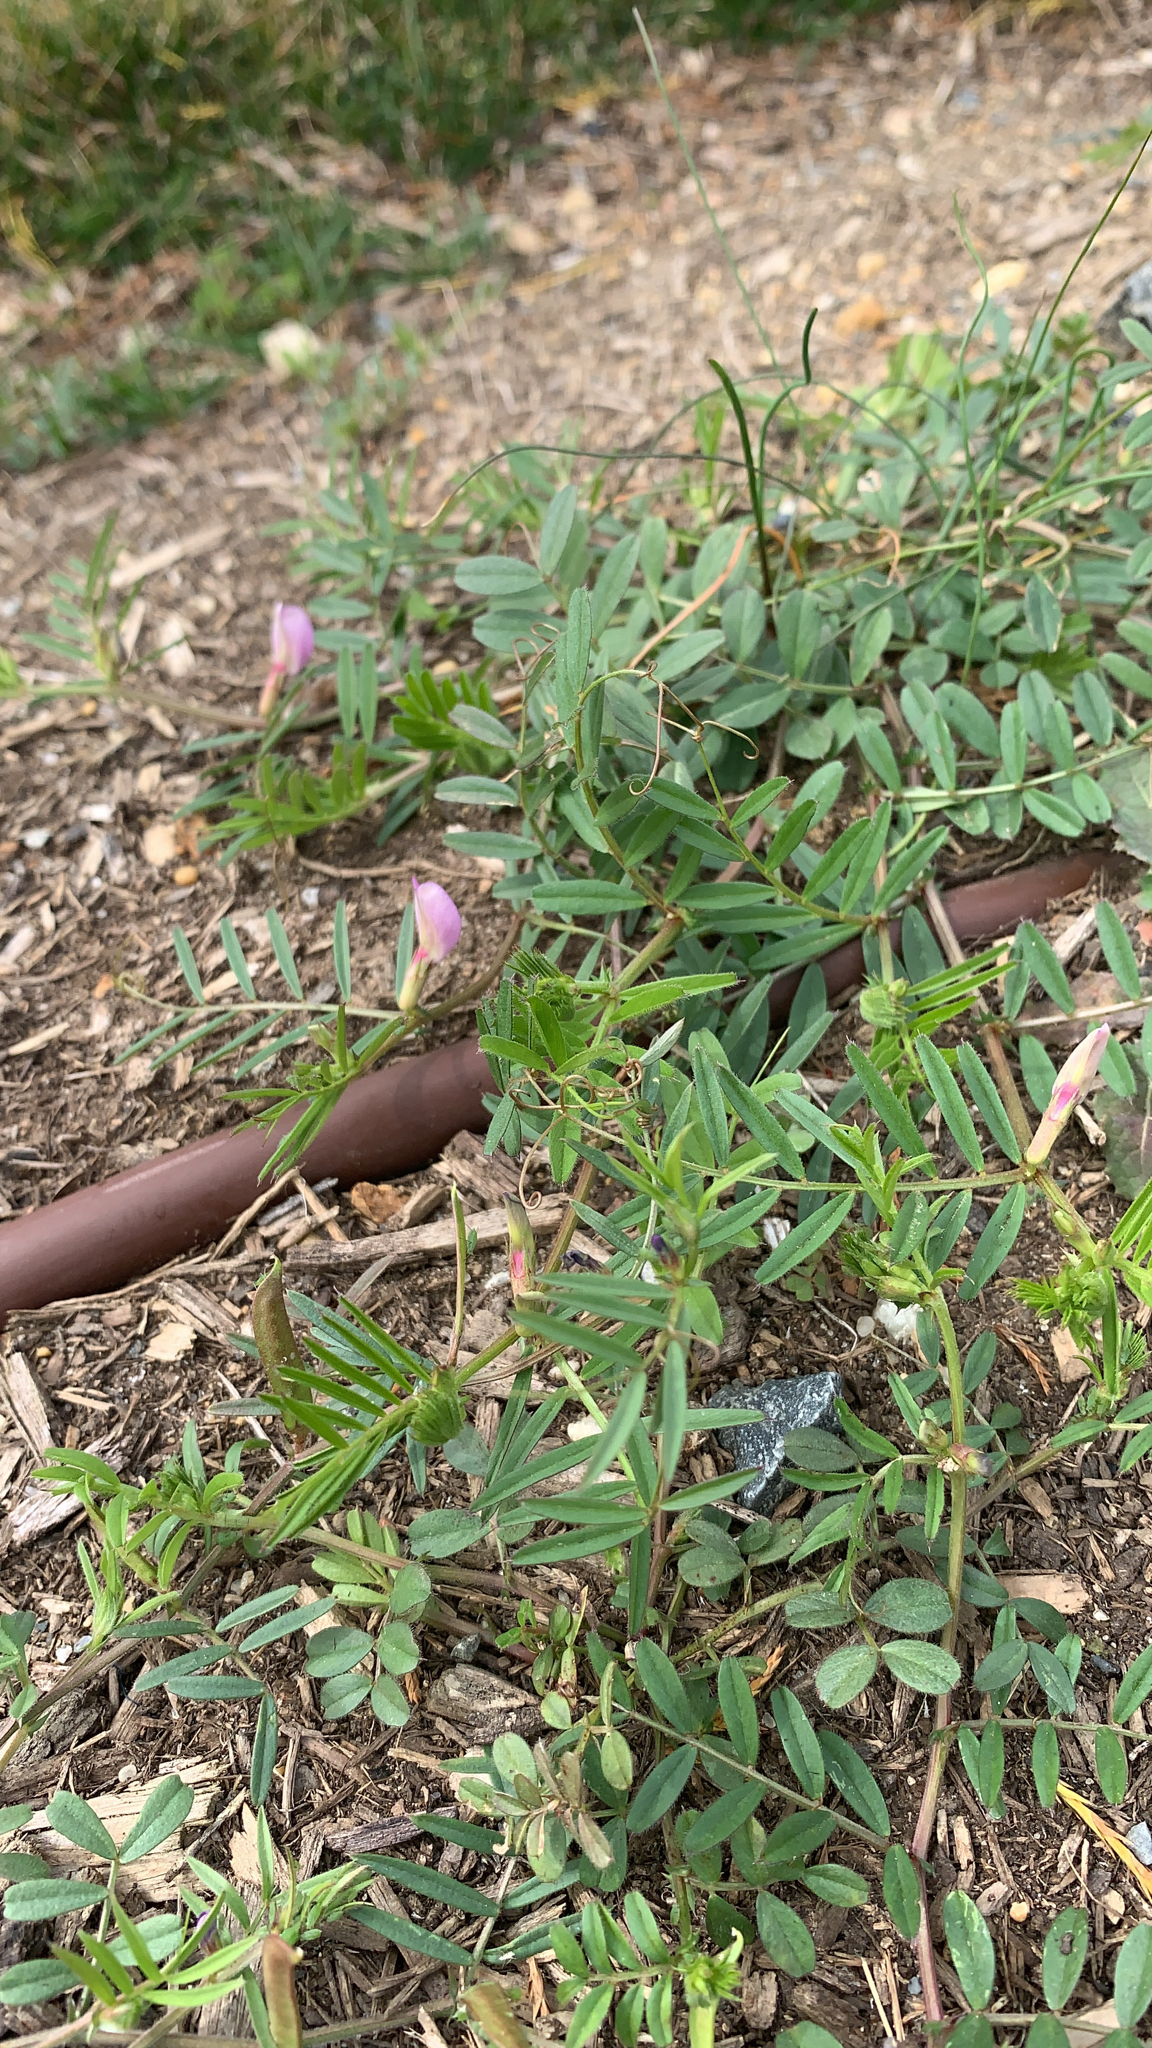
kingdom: Plantae
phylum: Tracheophyta
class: Magnoliopsida
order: Fabales
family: Fabaceae
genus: Vicia
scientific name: Vicia sativa
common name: Garden vetch
